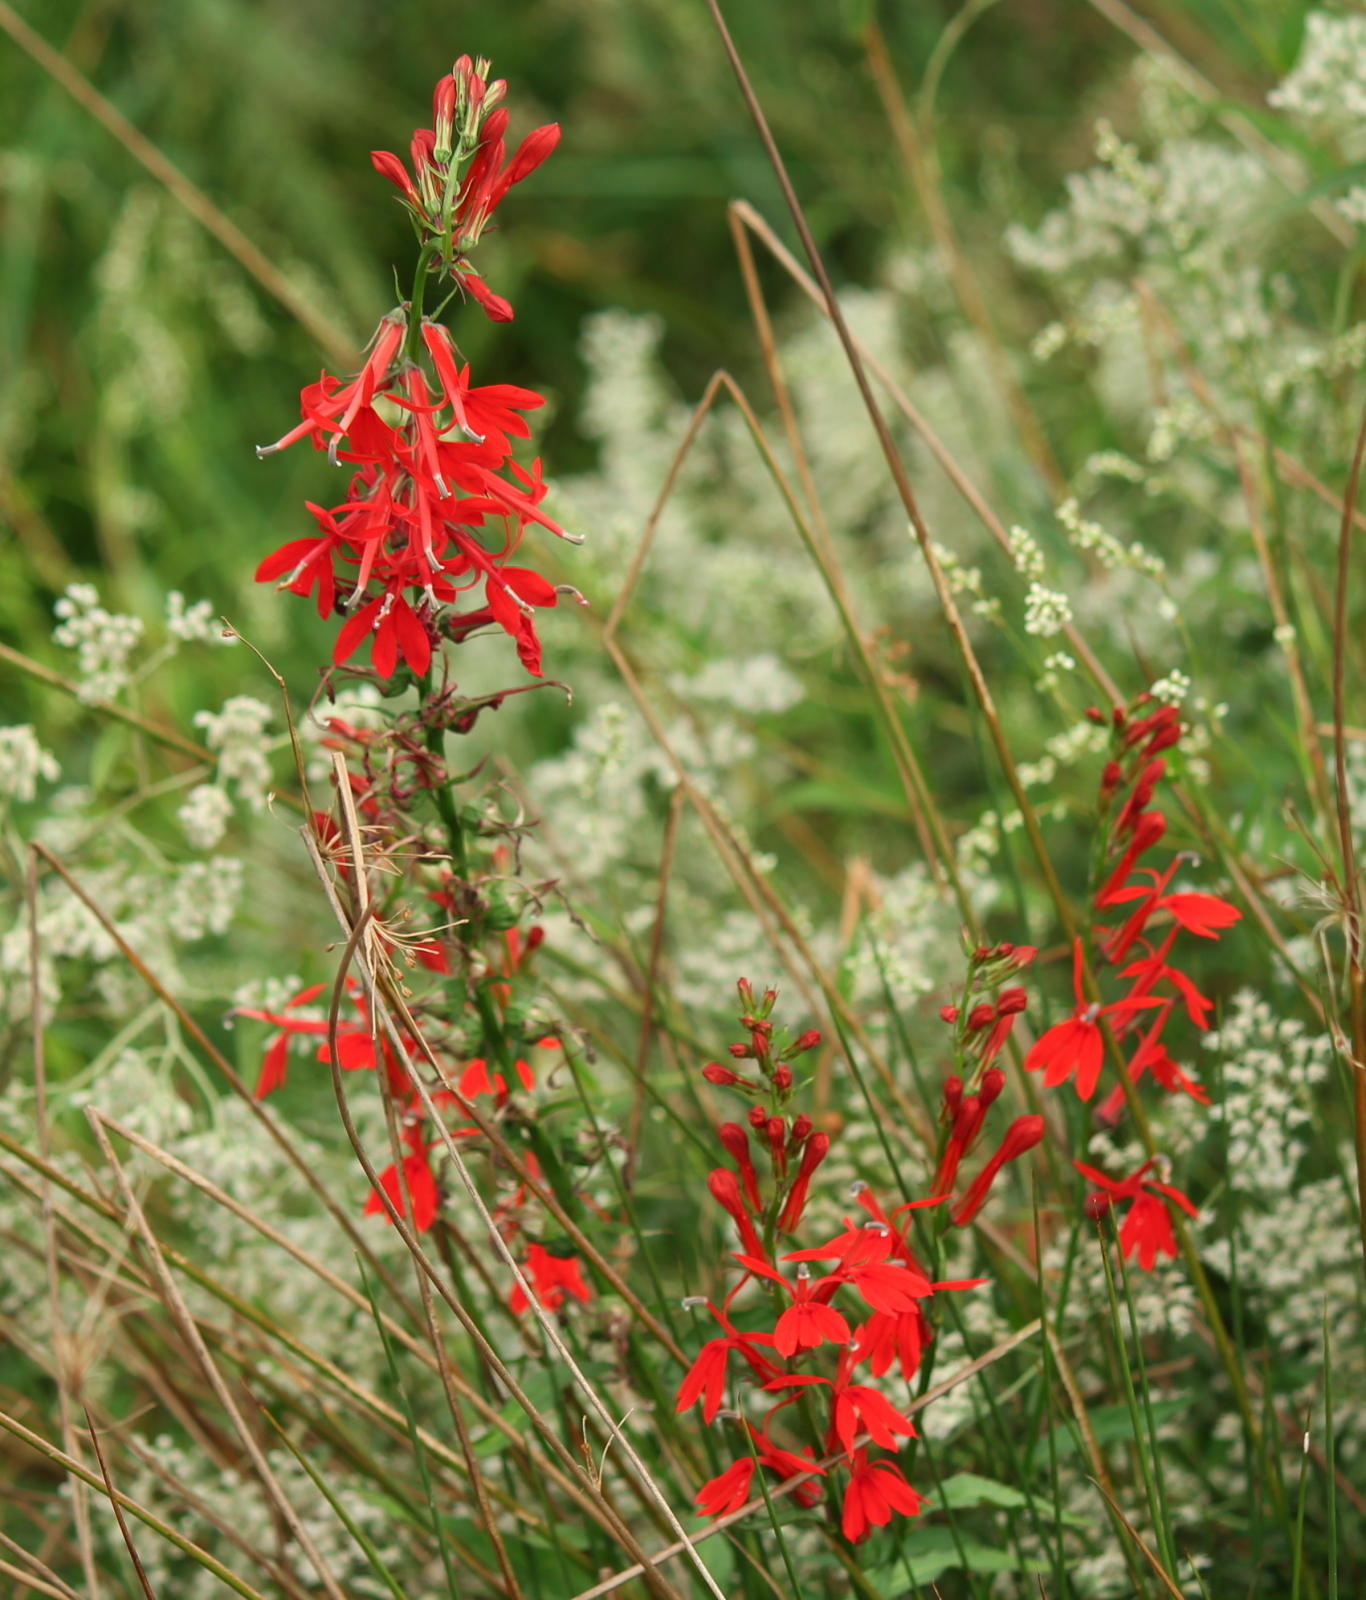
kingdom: Plantae
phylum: Tracheophyta
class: Magnoliopsida
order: Asterales
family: Campanulaceae
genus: Lobelia
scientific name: Lobelia cardinalis
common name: Cardinal flower
